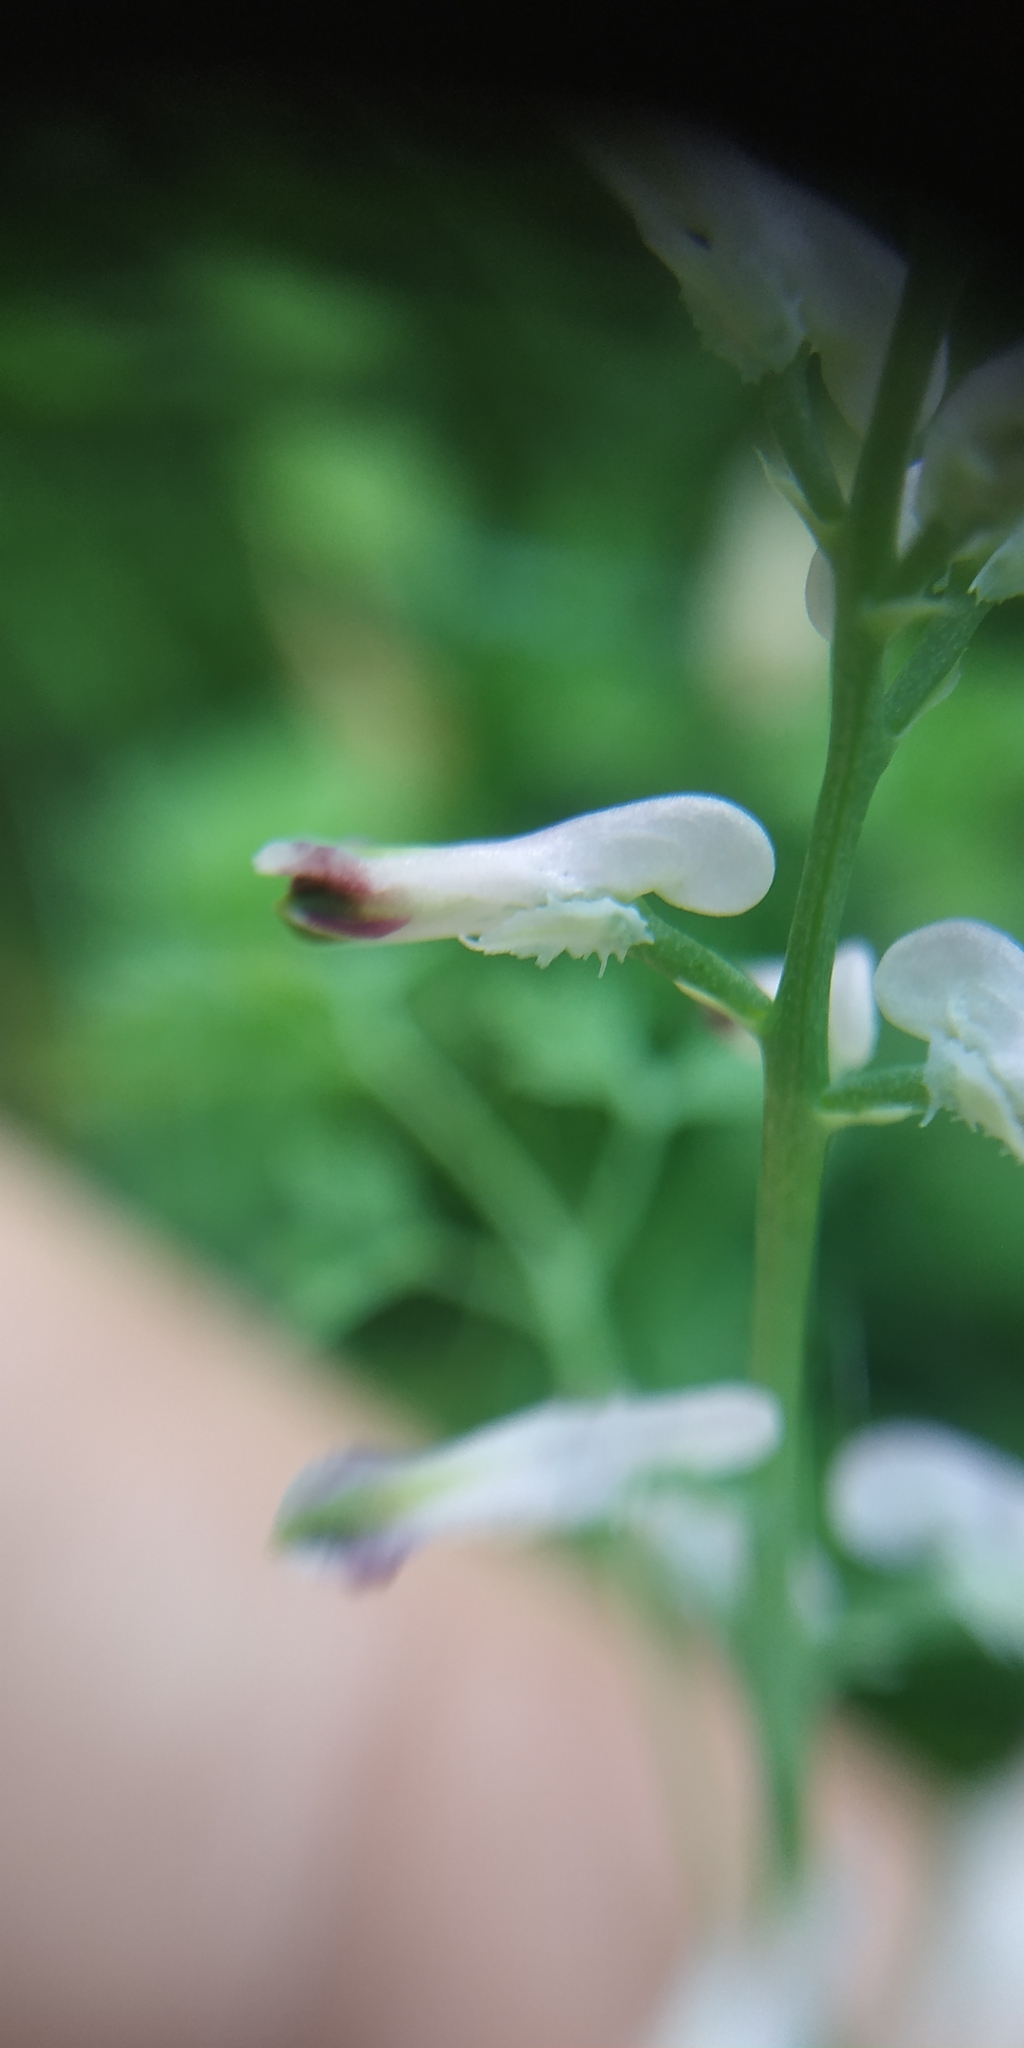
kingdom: Plantae
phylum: Tracheophyta
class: Magnoliopsida
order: Ranunculales
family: Papaveraceae
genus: Fumaria
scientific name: Fumaria officinalis
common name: Common fumitory
